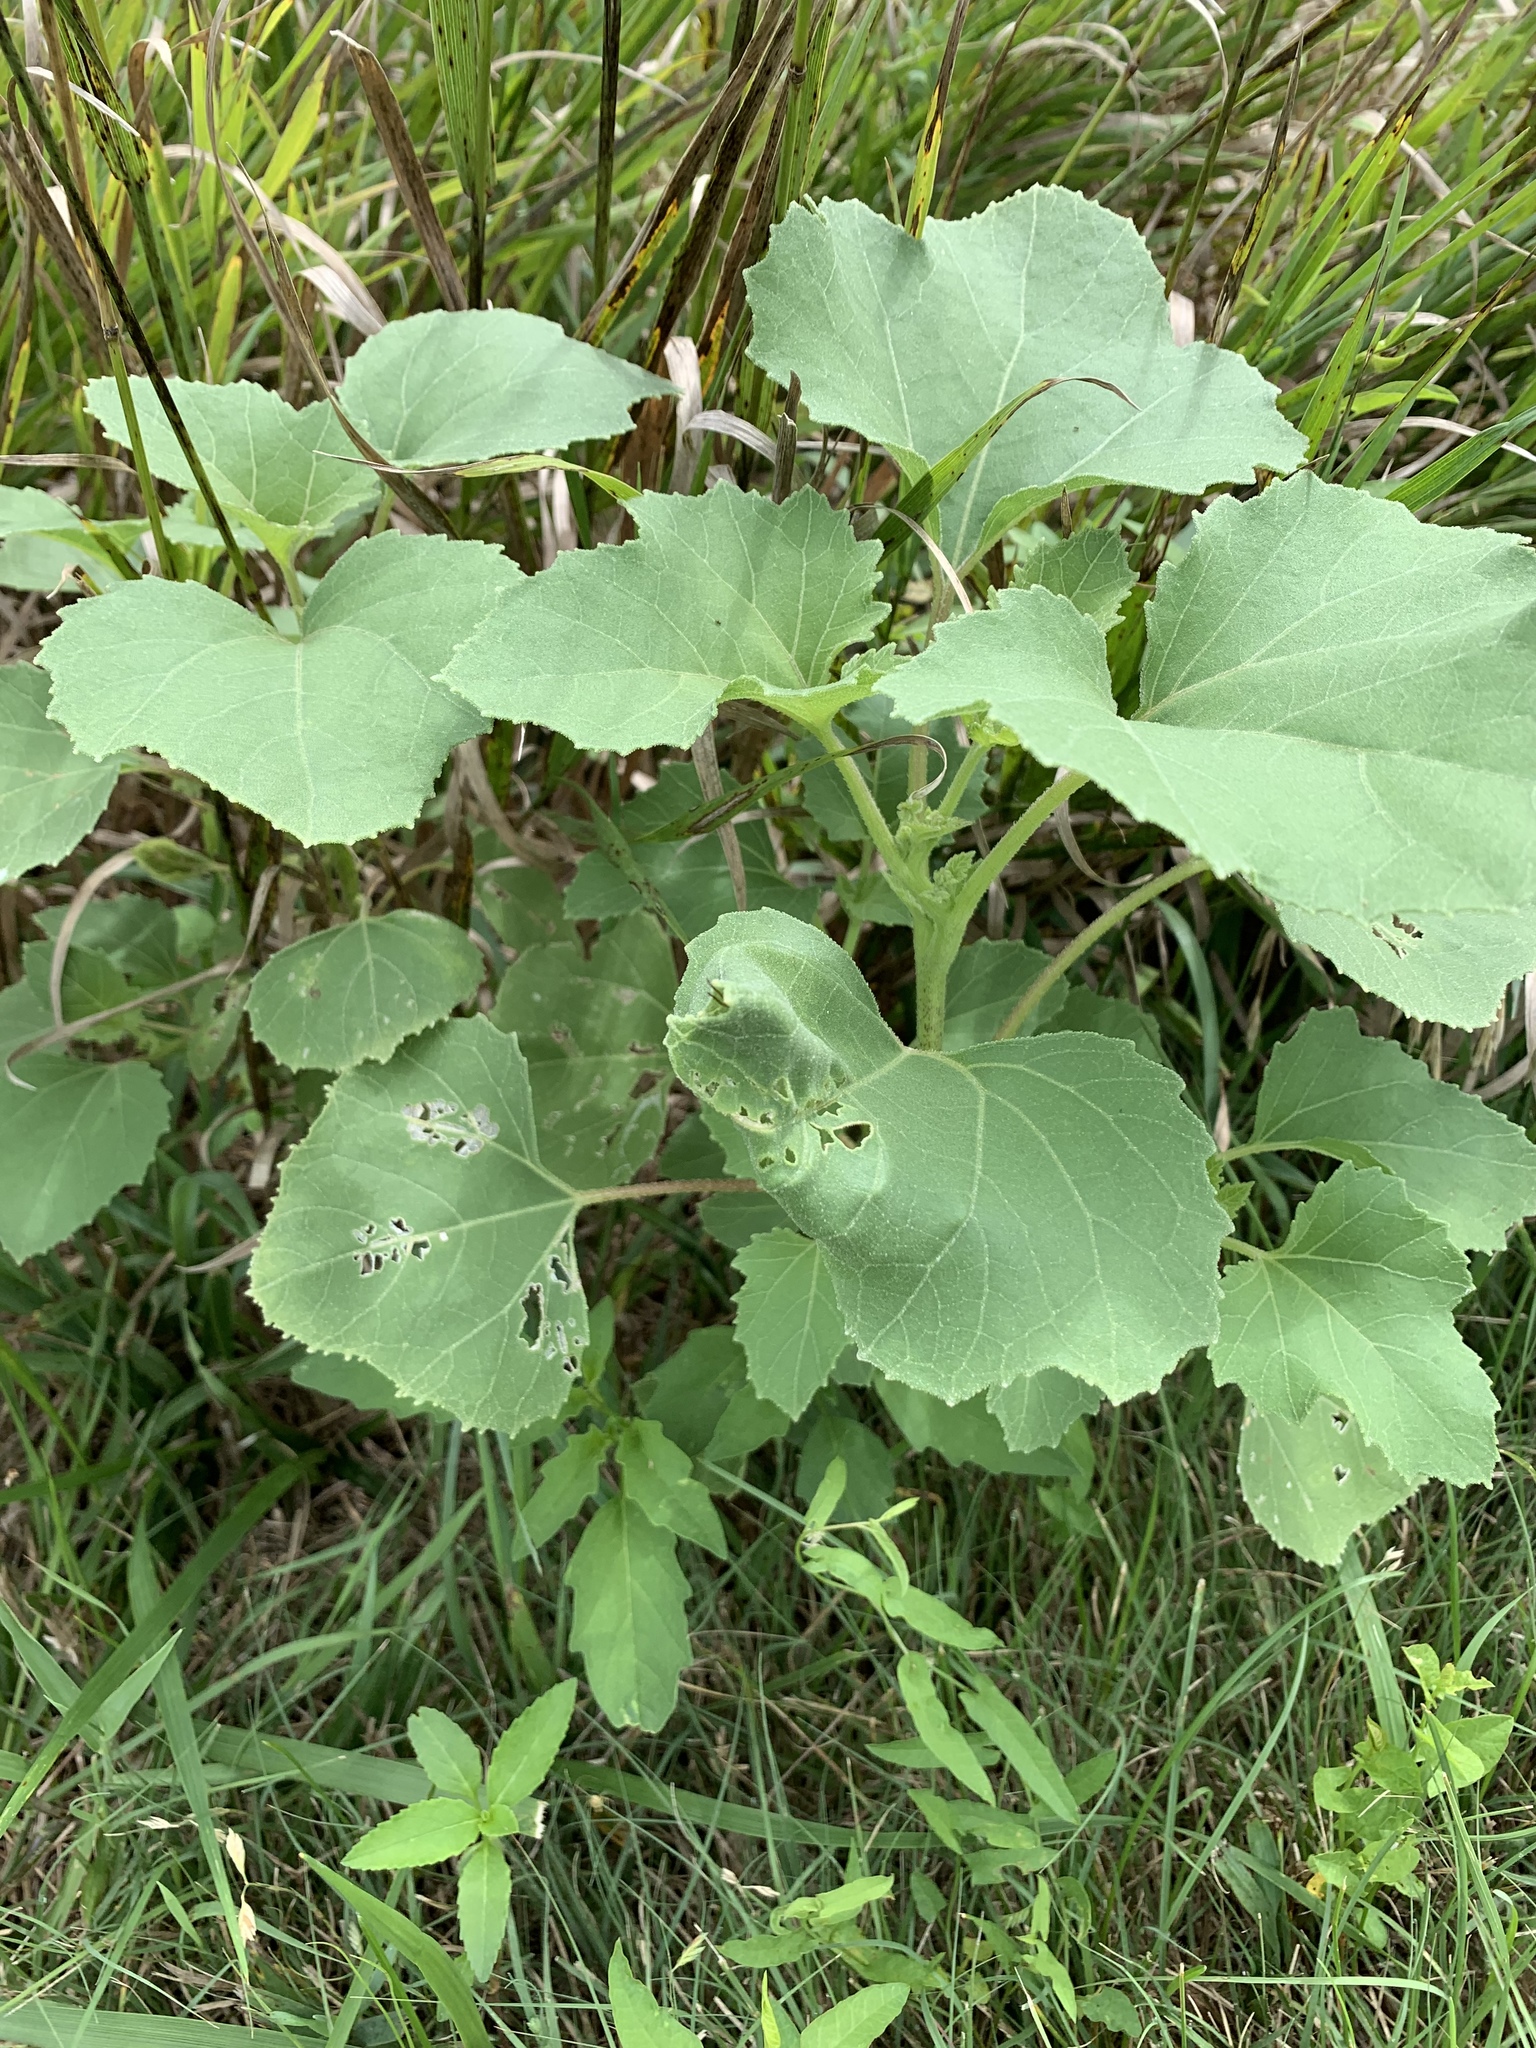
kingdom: Plantae
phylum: Tracheophyta
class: Magnoliopsida
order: Asterales
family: Asteraceae
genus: Xanthium
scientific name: Xanthium strumarium
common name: Rough cocklebur
